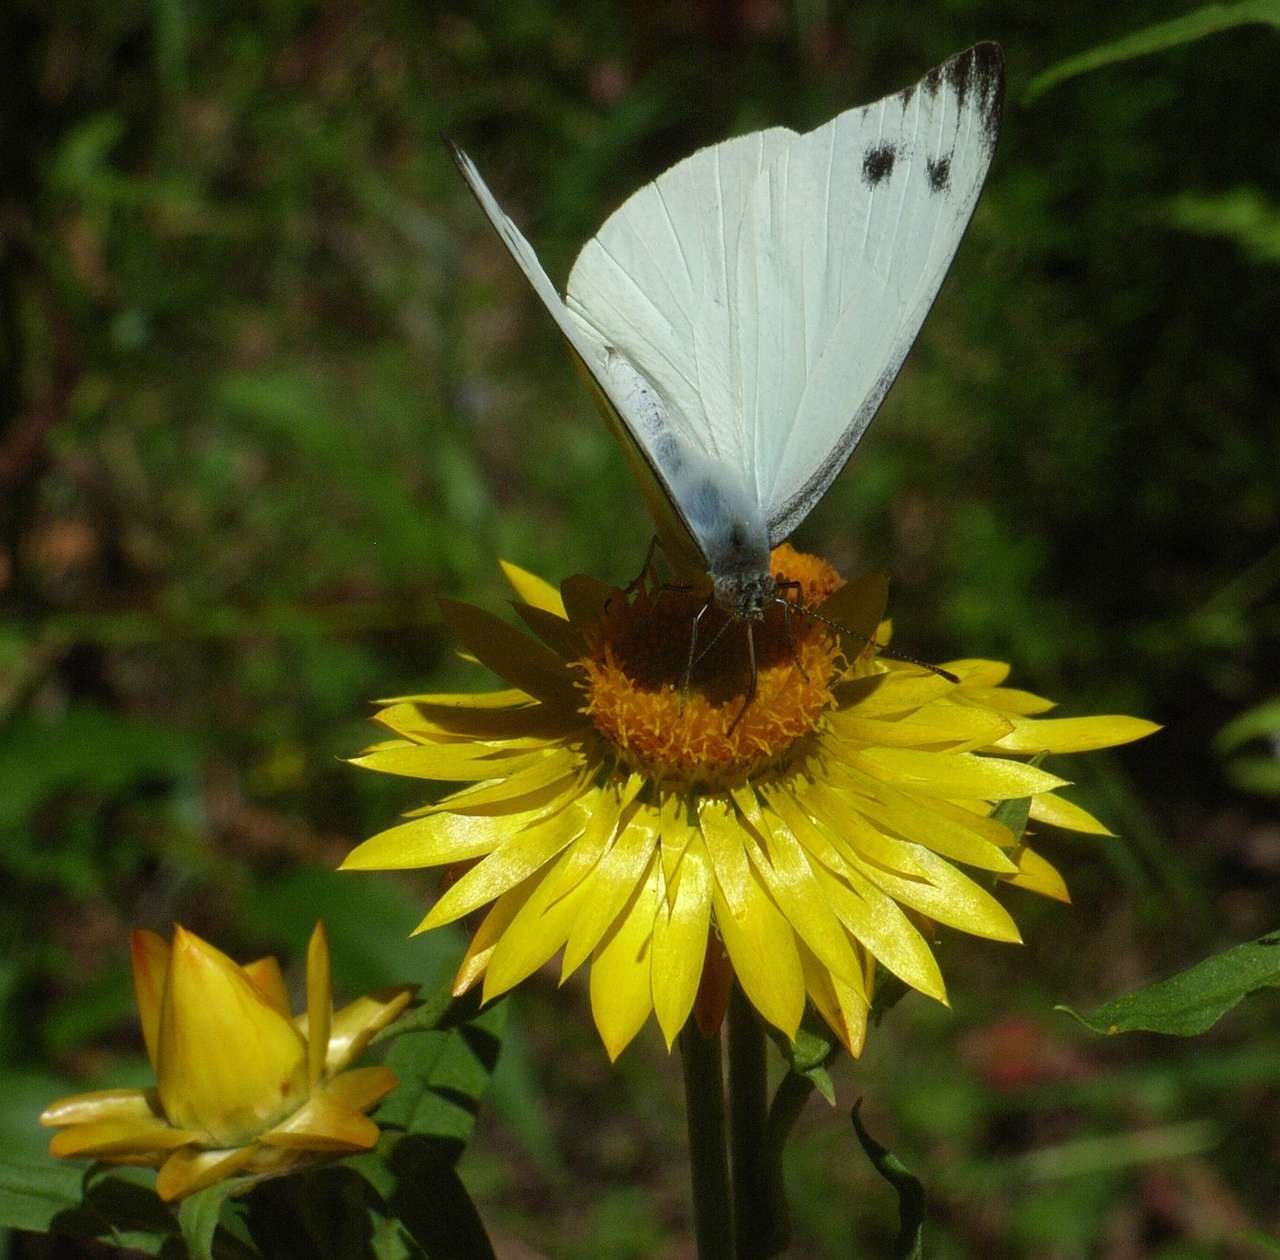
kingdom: Animalia
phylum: Arthropoda
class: Insecta
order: Lepidoptera
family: Pieridae
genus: Appias
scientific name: Appias paulina
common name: Ceylon lesser albatross
